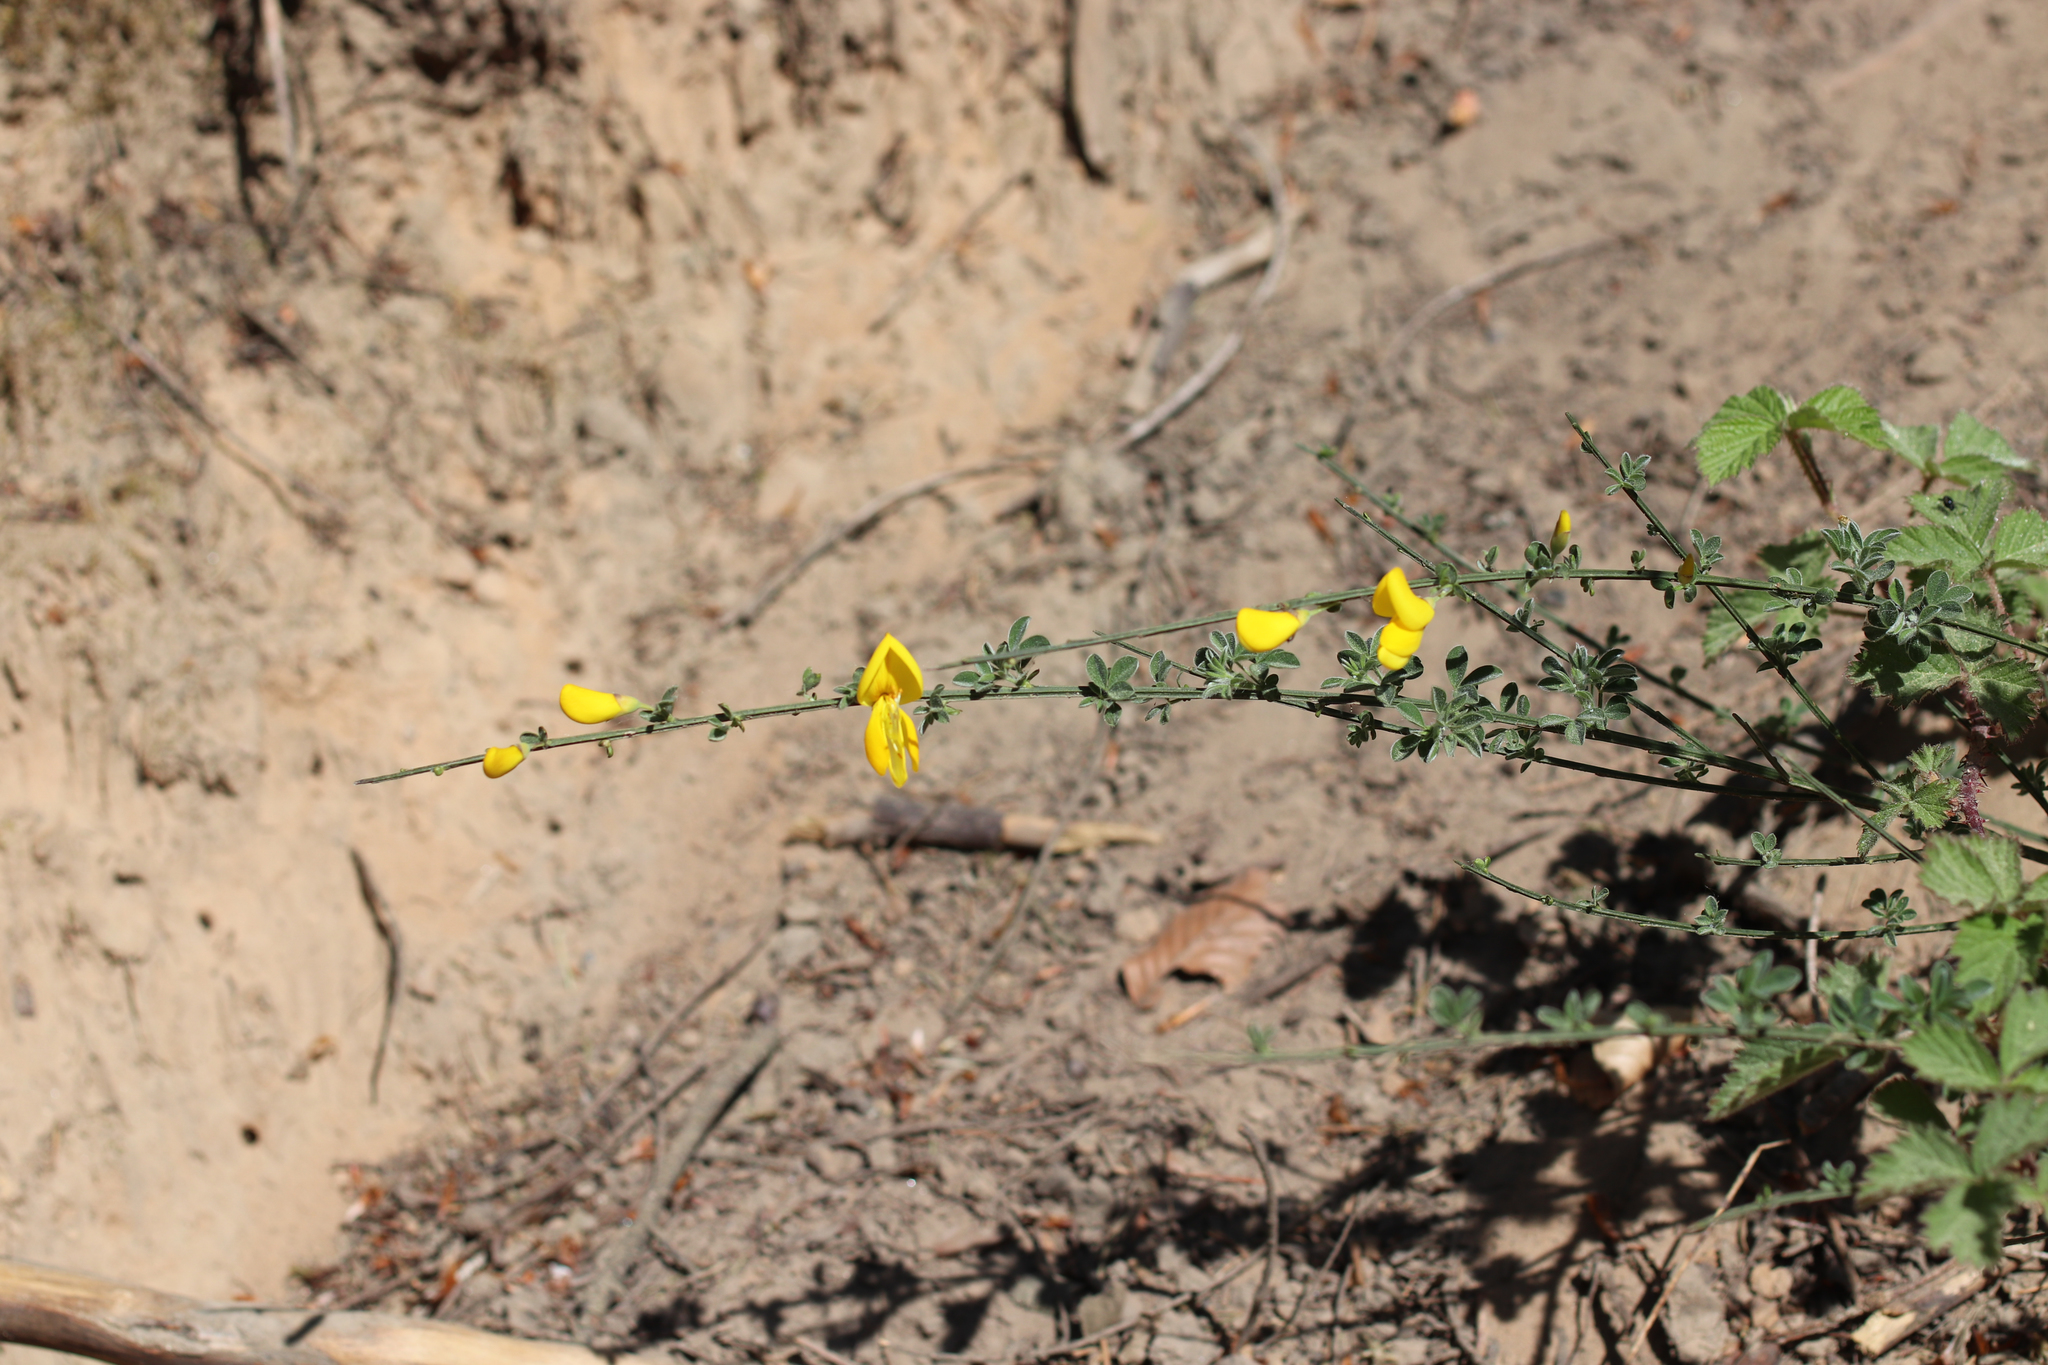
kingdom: Plantae
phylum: Tracheophyta
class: Magnoliopsida
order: Fabales
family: Fabaceae
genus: Cytisus
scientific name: Cytisus scoparius
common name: Scotch broom
